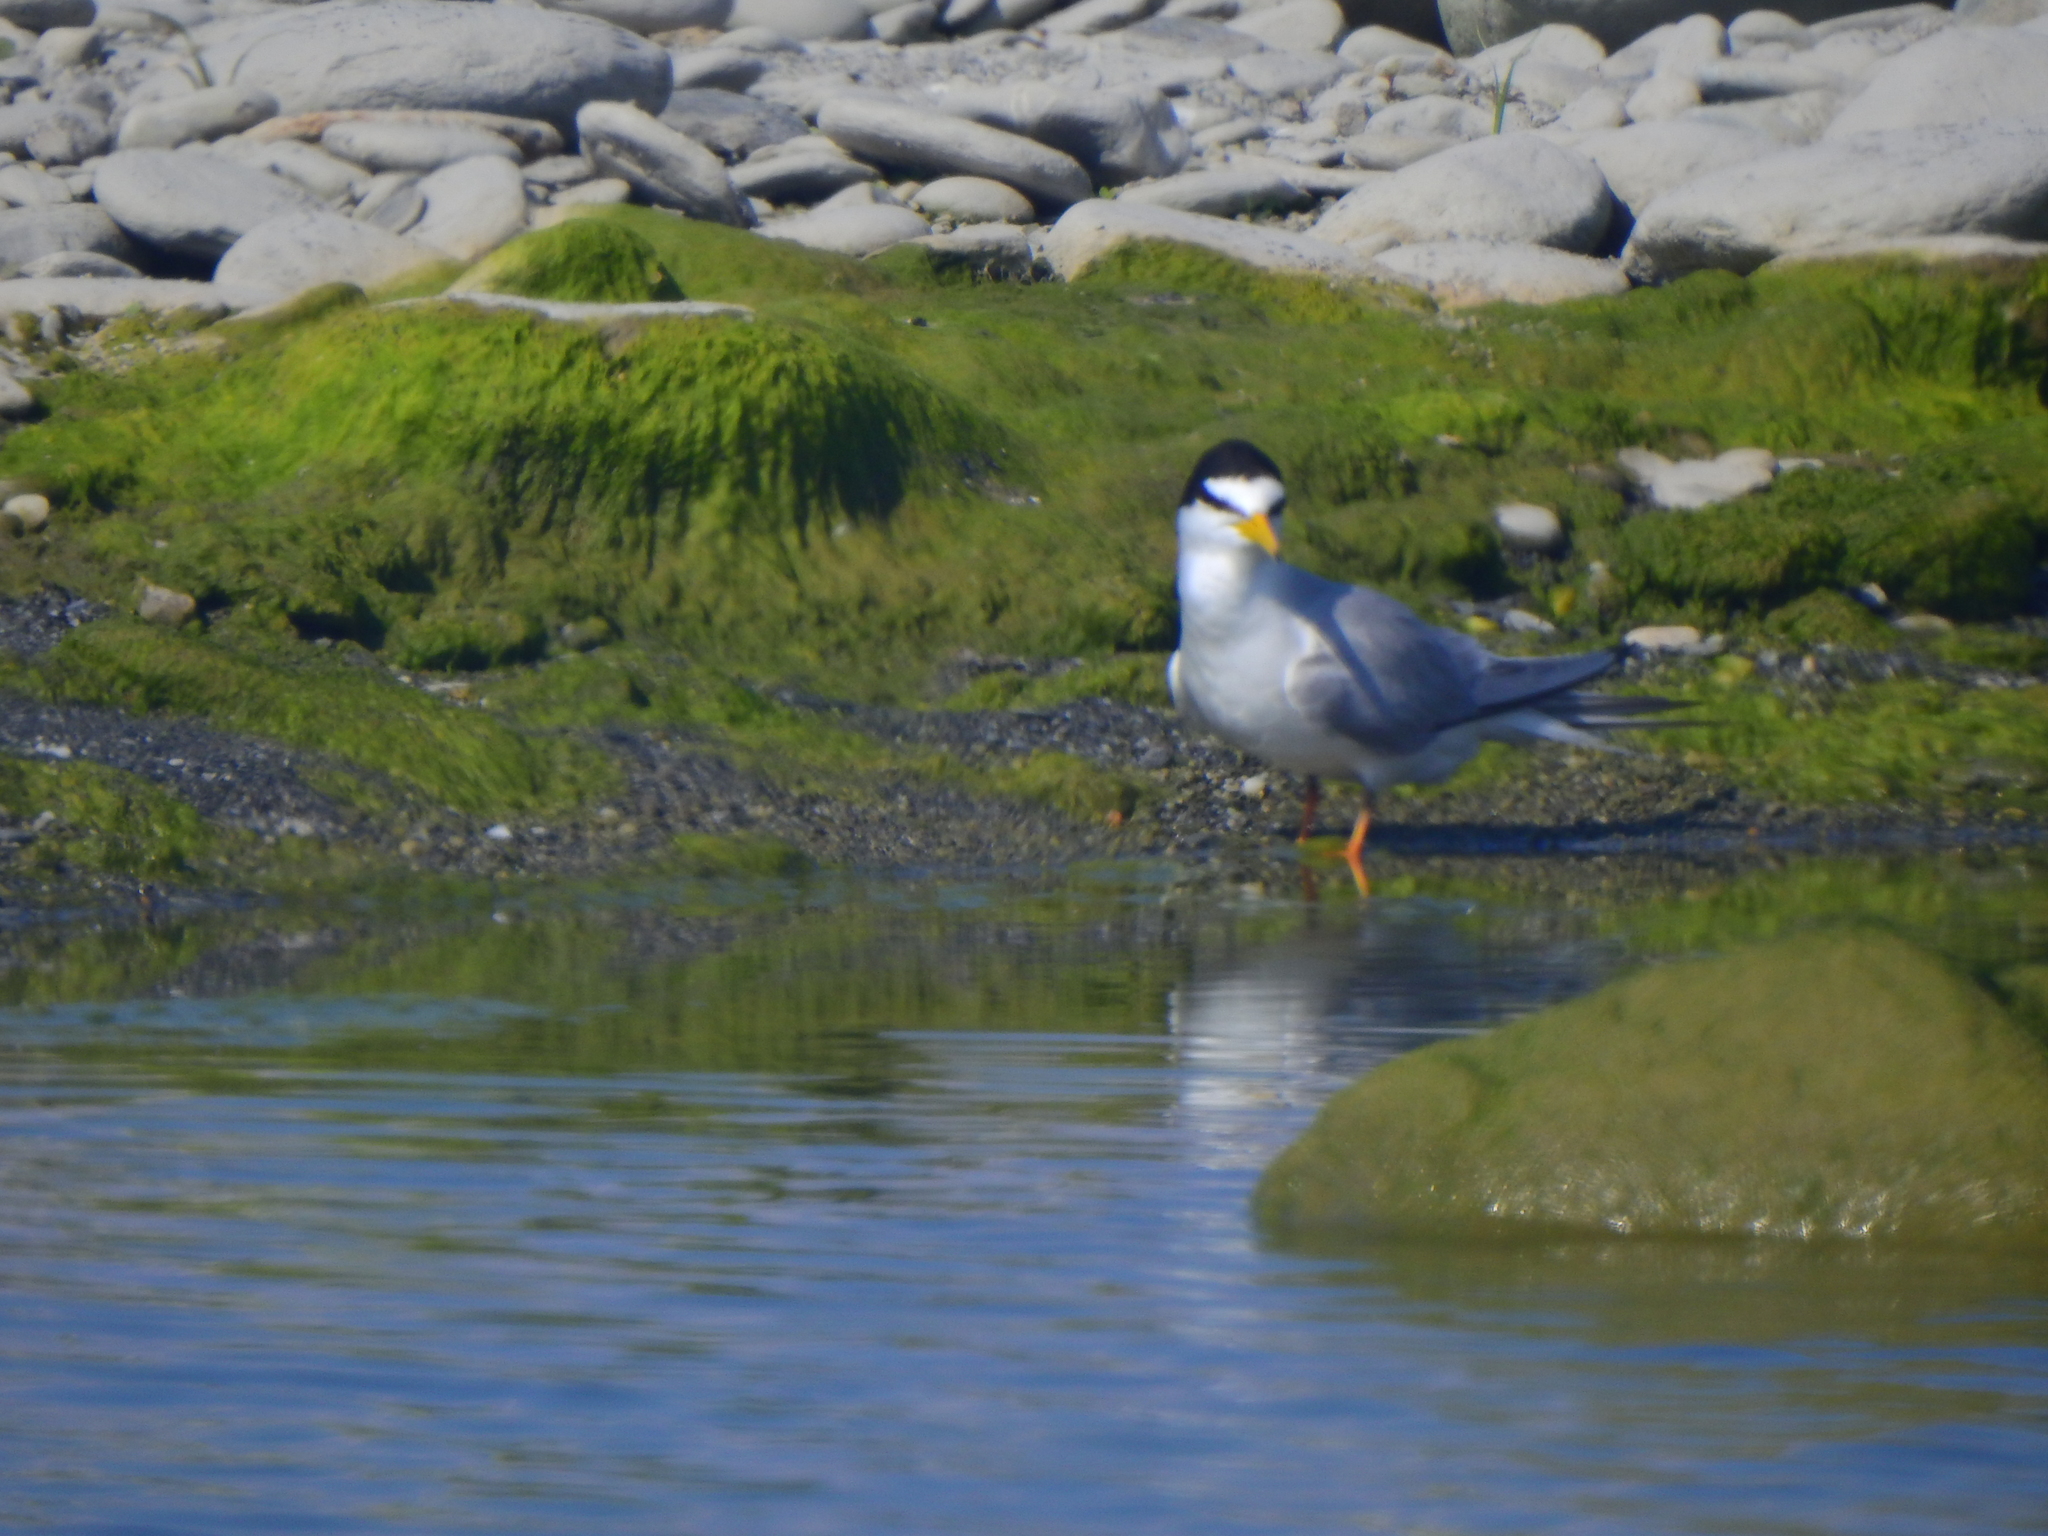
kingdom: Animalia
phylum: Chordata
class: Aves
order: Charadriiformes
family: Laridae
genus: Sternula
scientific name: Sternula albifrons
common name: Little tern
